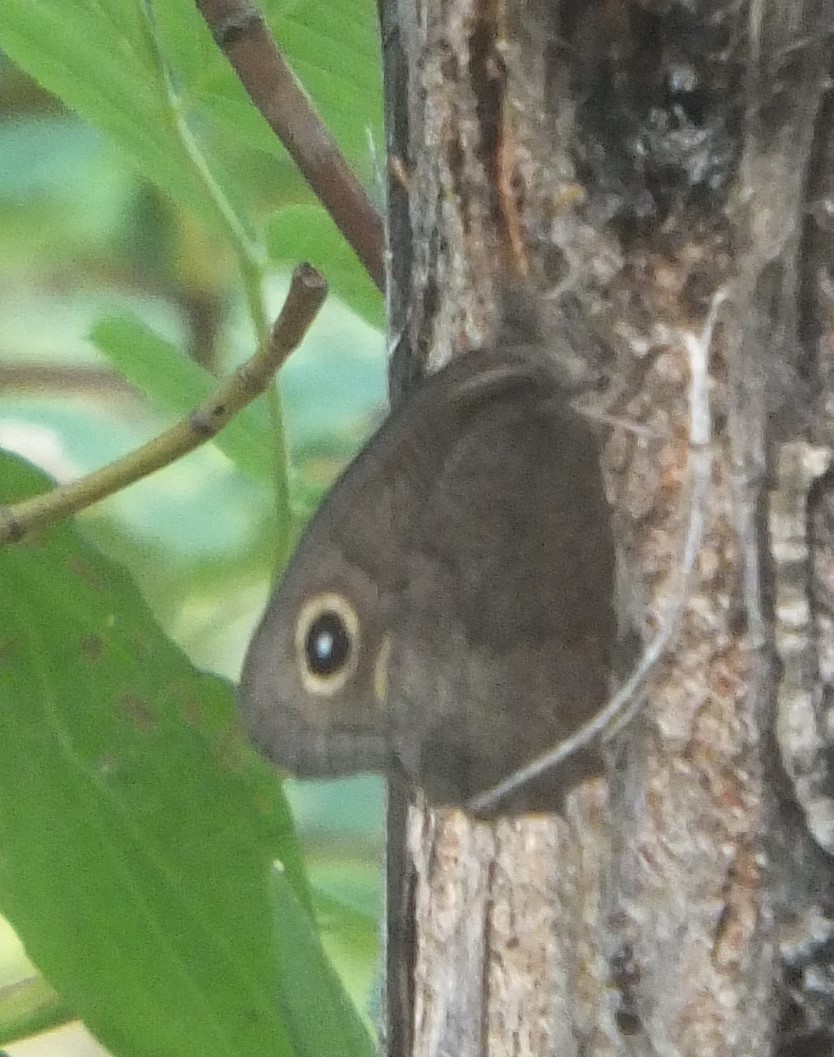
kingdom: Animalia
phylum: Arthropoda
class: Insecta
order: Lepidoptera
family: Nymphalidae
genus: Cercyonis
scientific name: Cercyonis pegala
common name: Common wood-nymph
